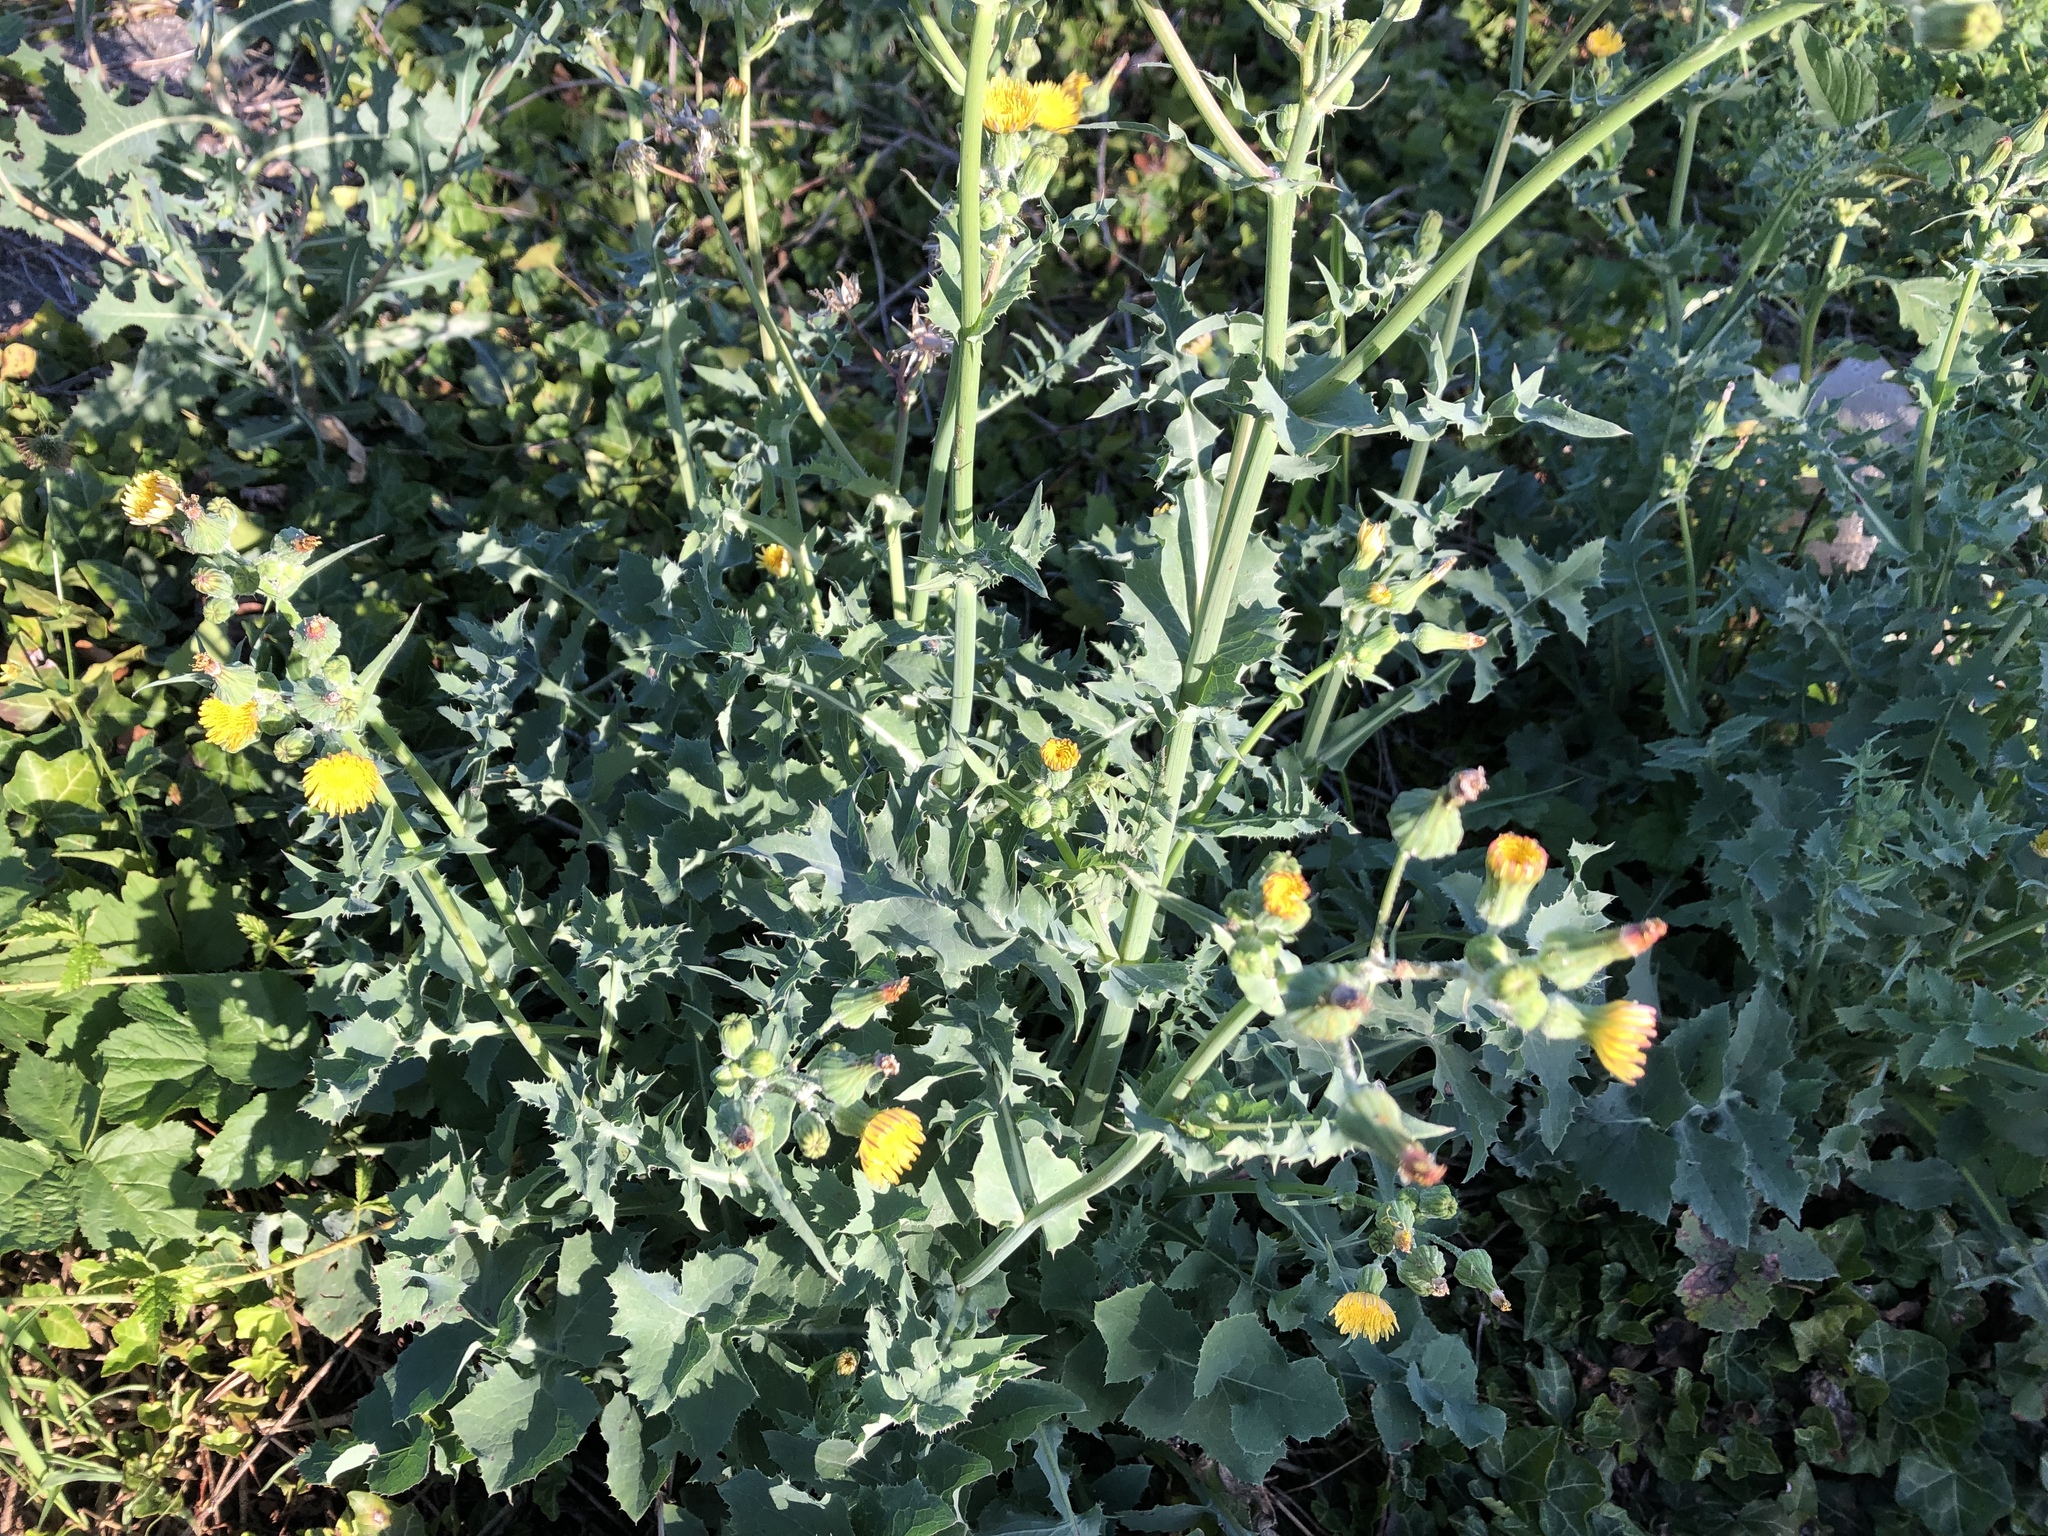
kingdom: Plantae
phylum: Tracheophyta
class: Magnoliopsida
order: Asterales
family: Asteraceae
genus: Sonchus
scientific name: Sonchus oleraceus
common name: Common sowthistle
